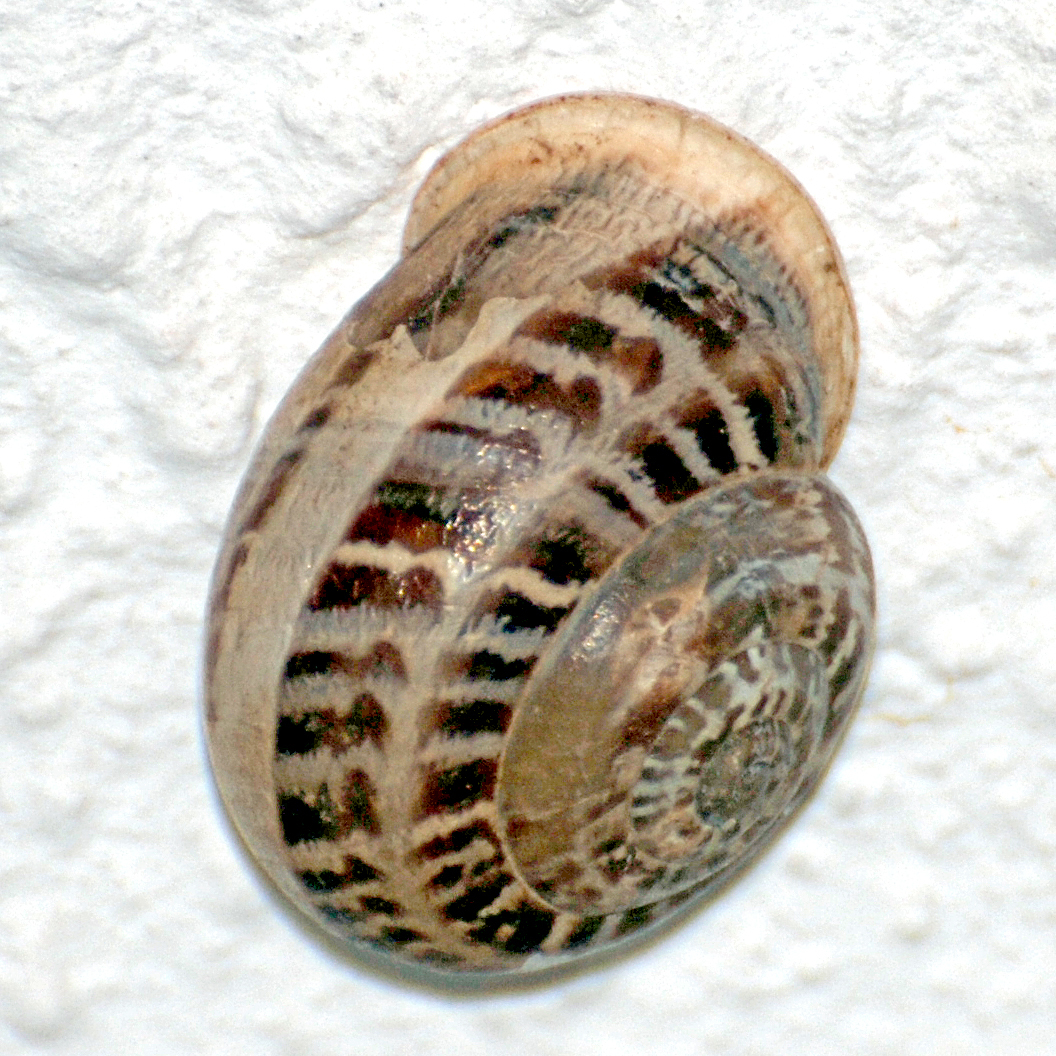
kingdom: Animalia
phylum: Mollusca
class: Gastropoda
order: Stylommatophora
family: Helicidae
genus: Eobania
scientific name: Eobania vermiculata
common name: Chocolateband snail
